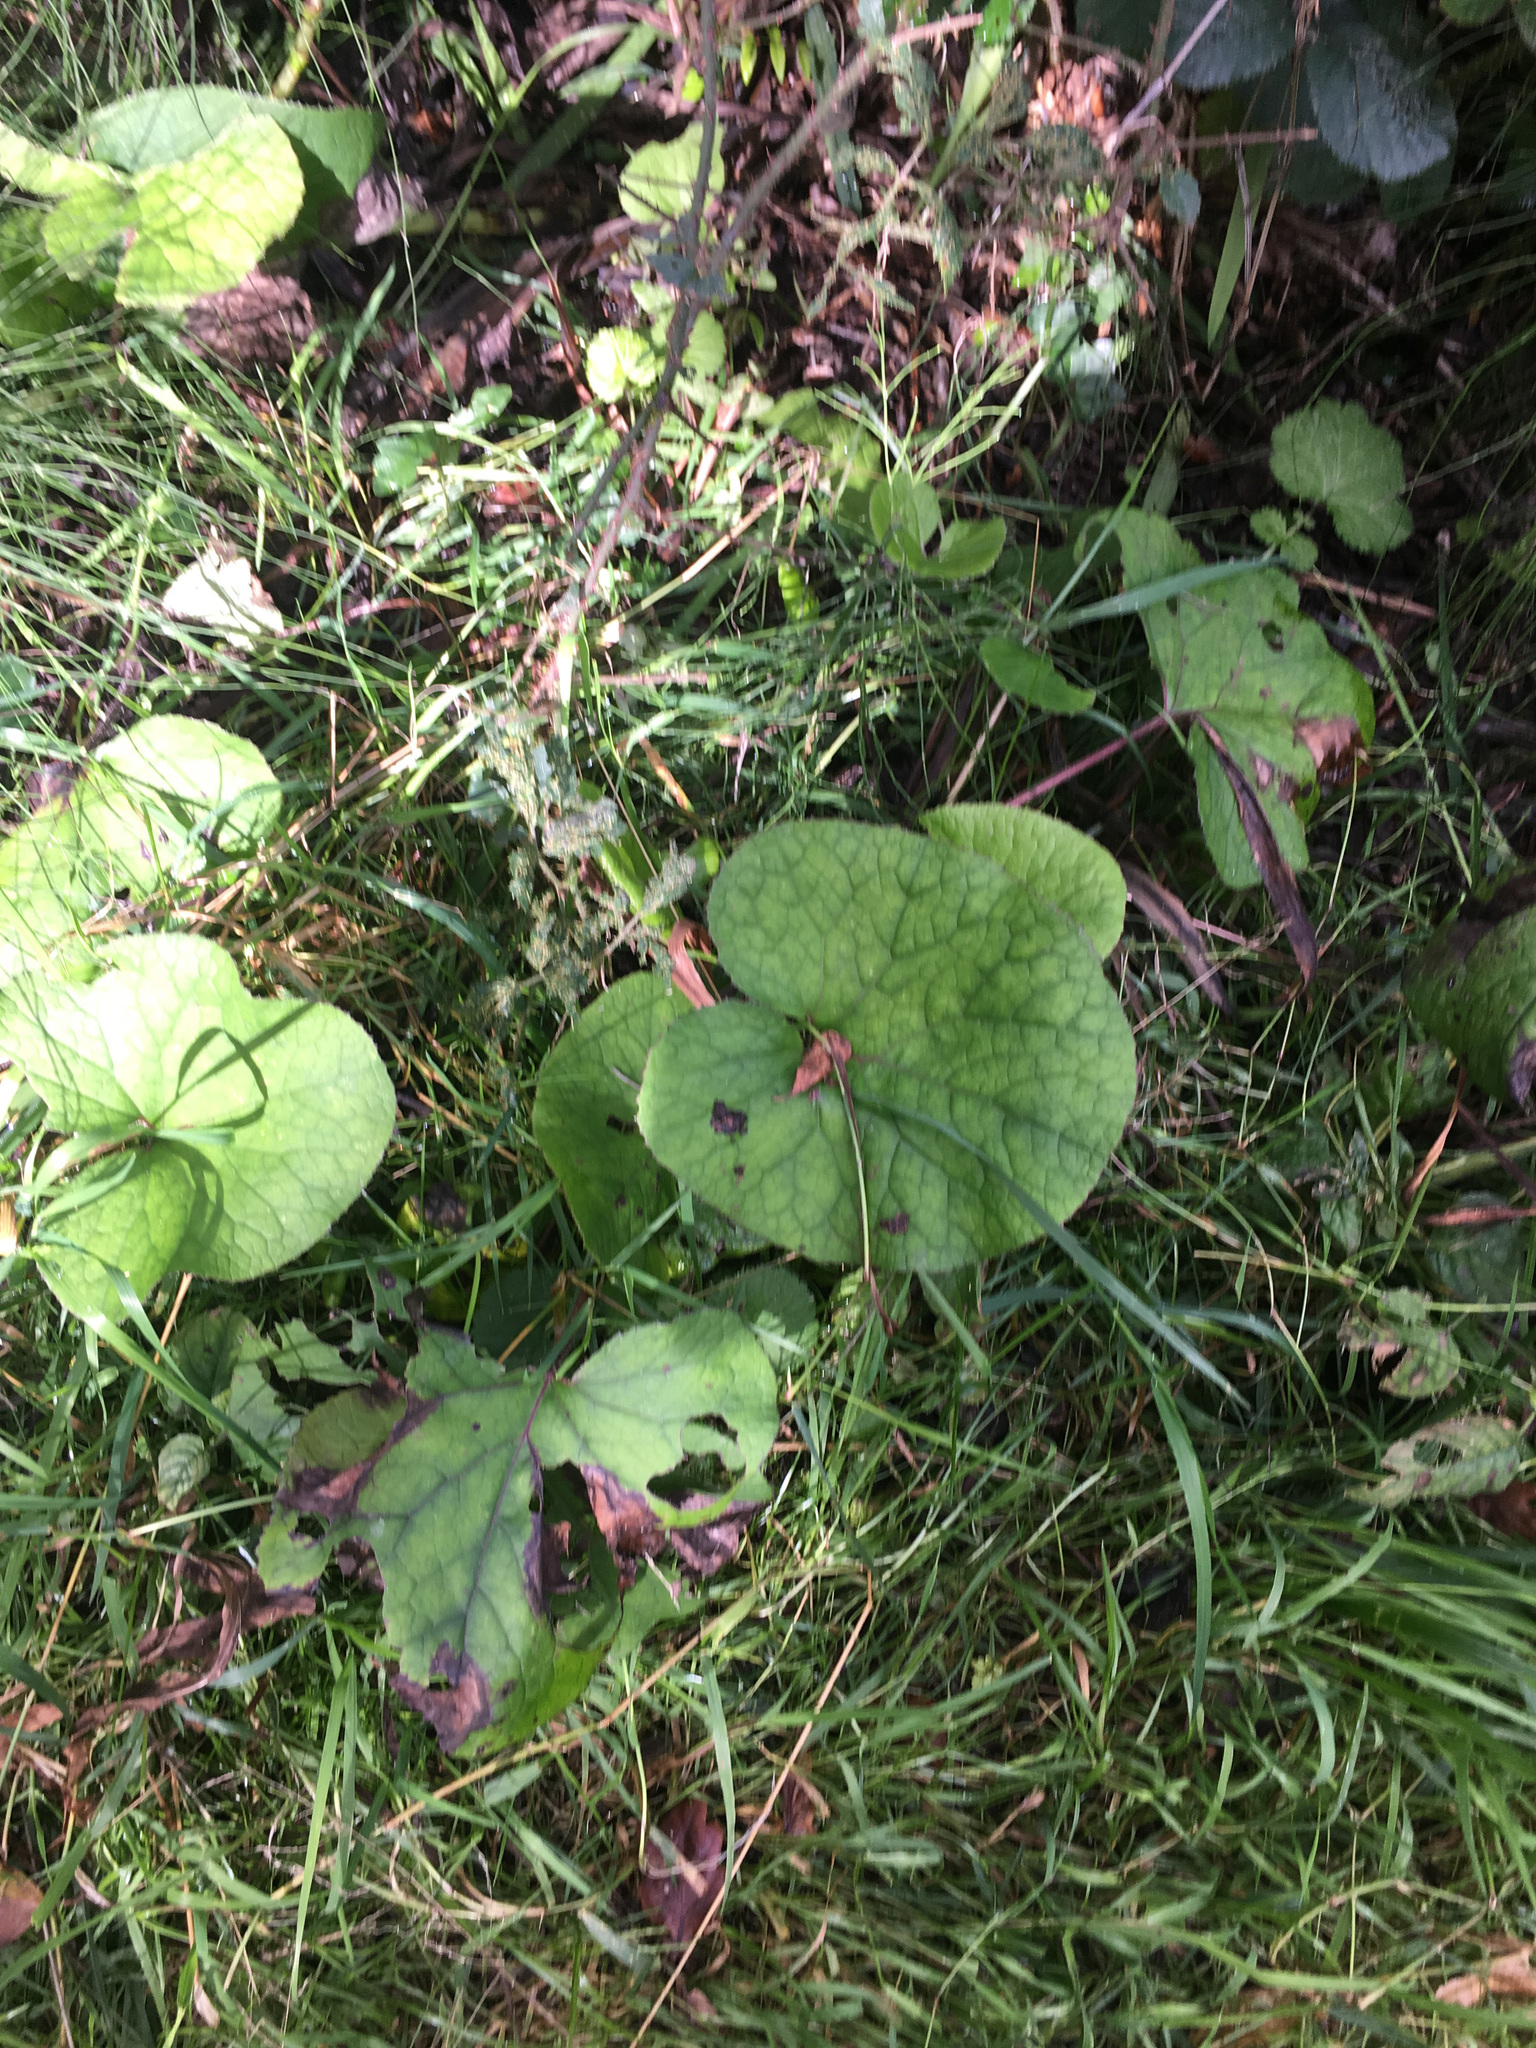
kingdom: Plantae
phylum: Tracheophyta
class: Magnoliopsida
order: Asterales
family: Asteraceae
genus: Petasites
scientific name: Petasites pyrenaicus
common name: Winter heliotrope
